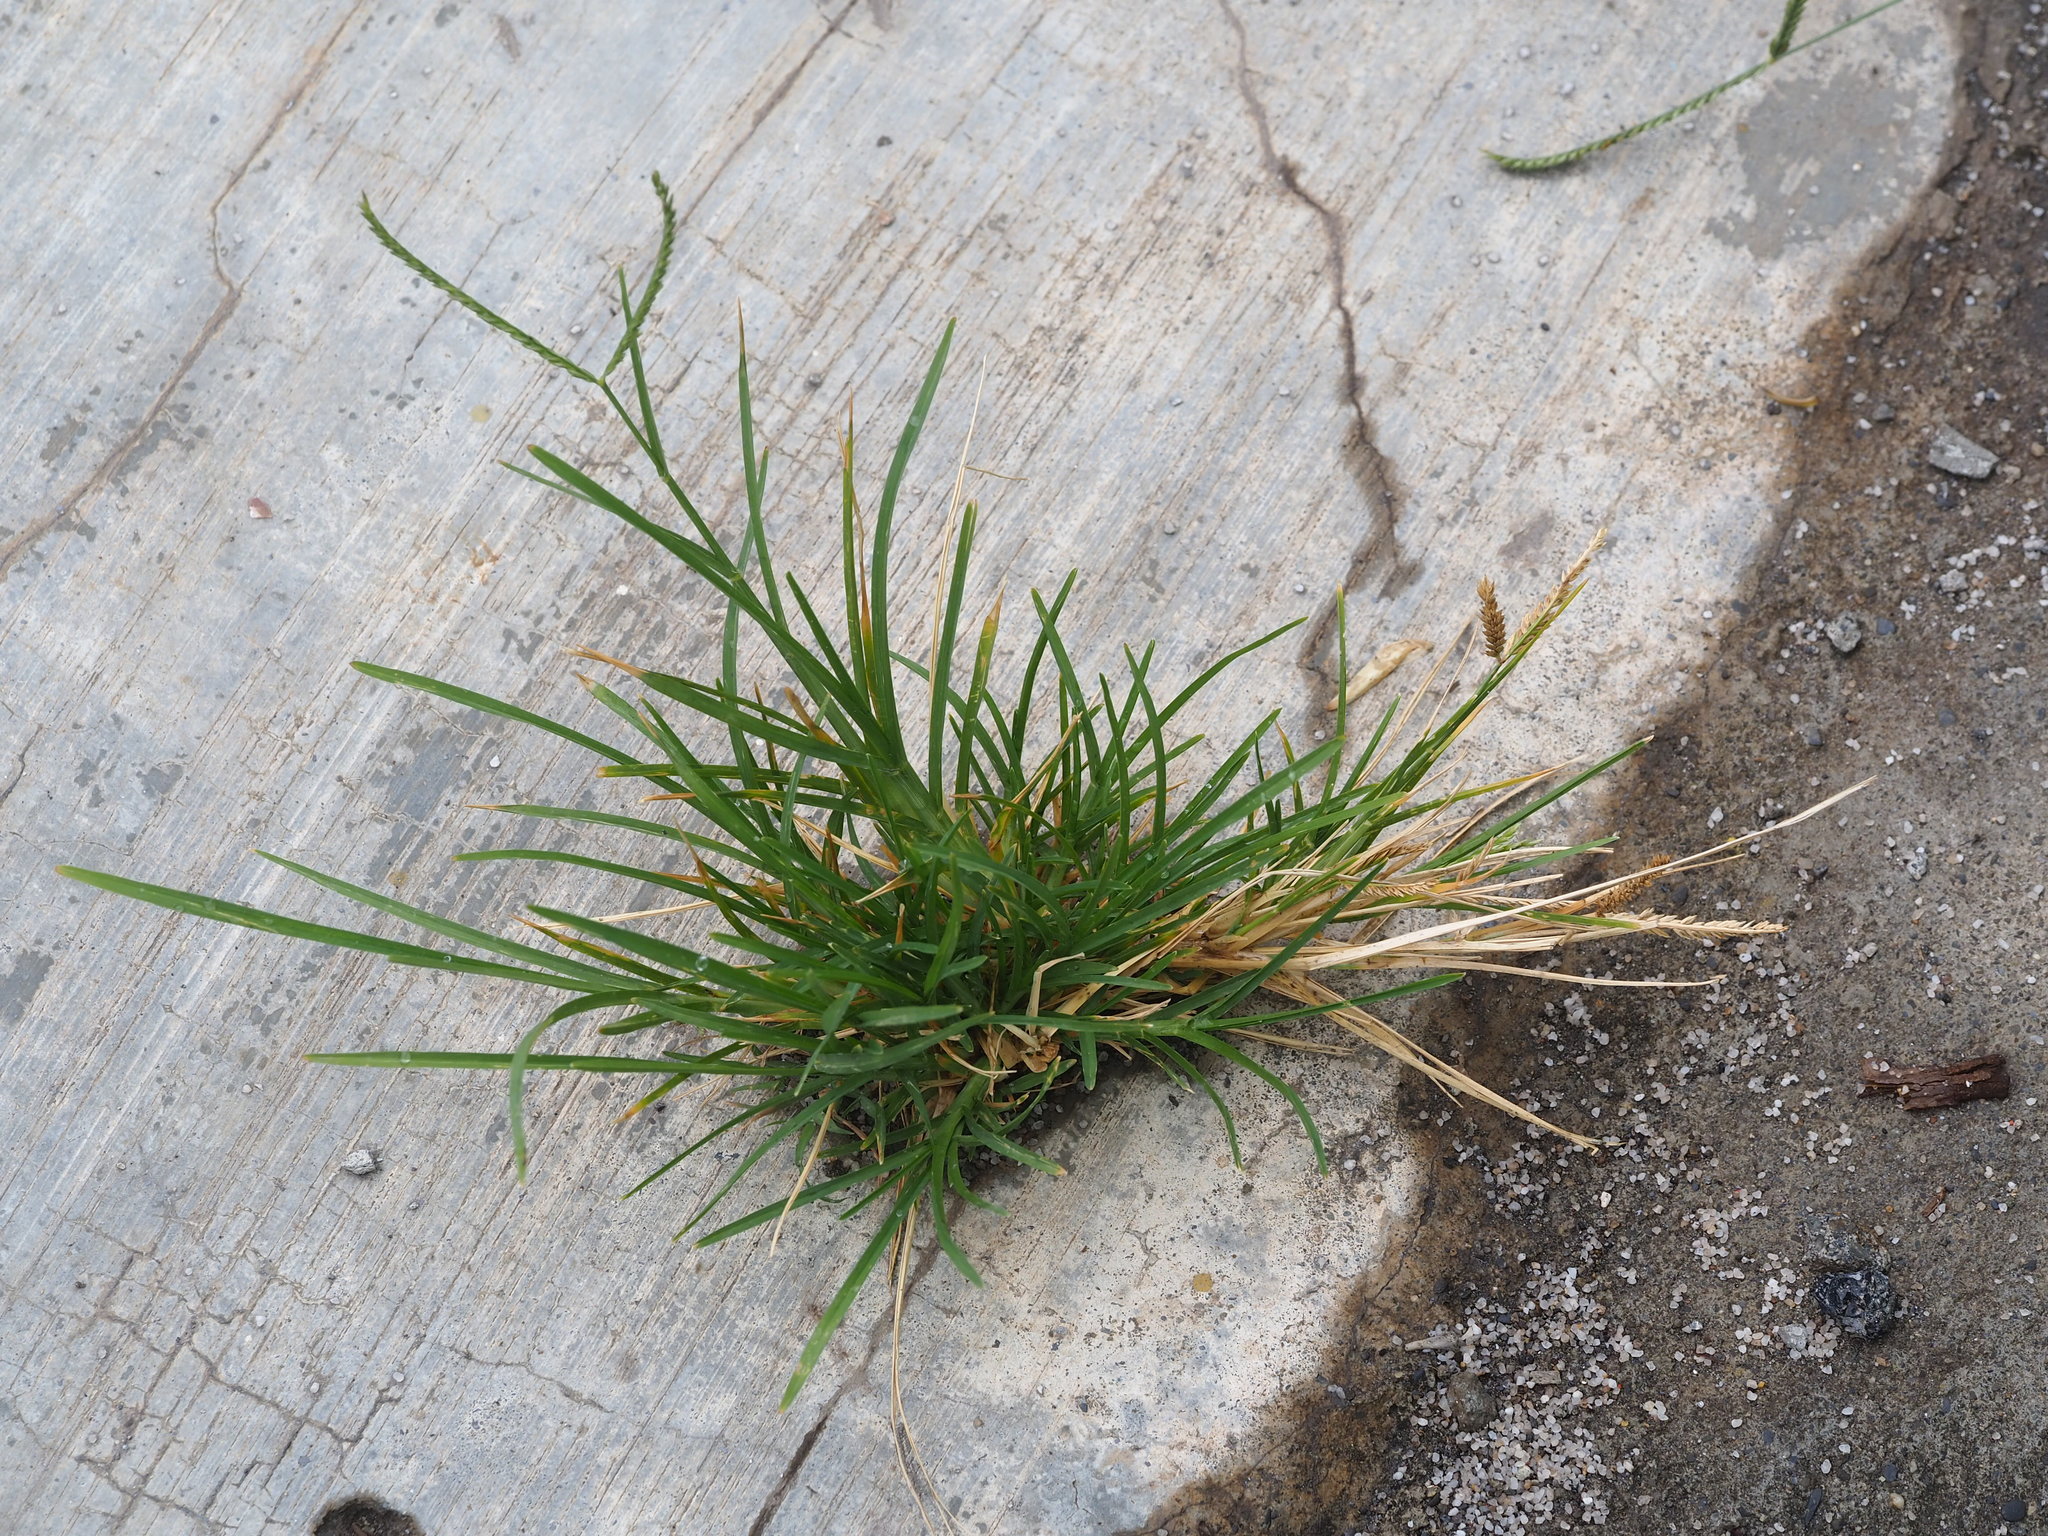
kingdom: Plantae
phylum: Tracheophyta
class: Liliopsida
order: Poales
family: Poaceae
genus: Eleusine
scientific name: Eleusine indica
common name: Yard-grass
